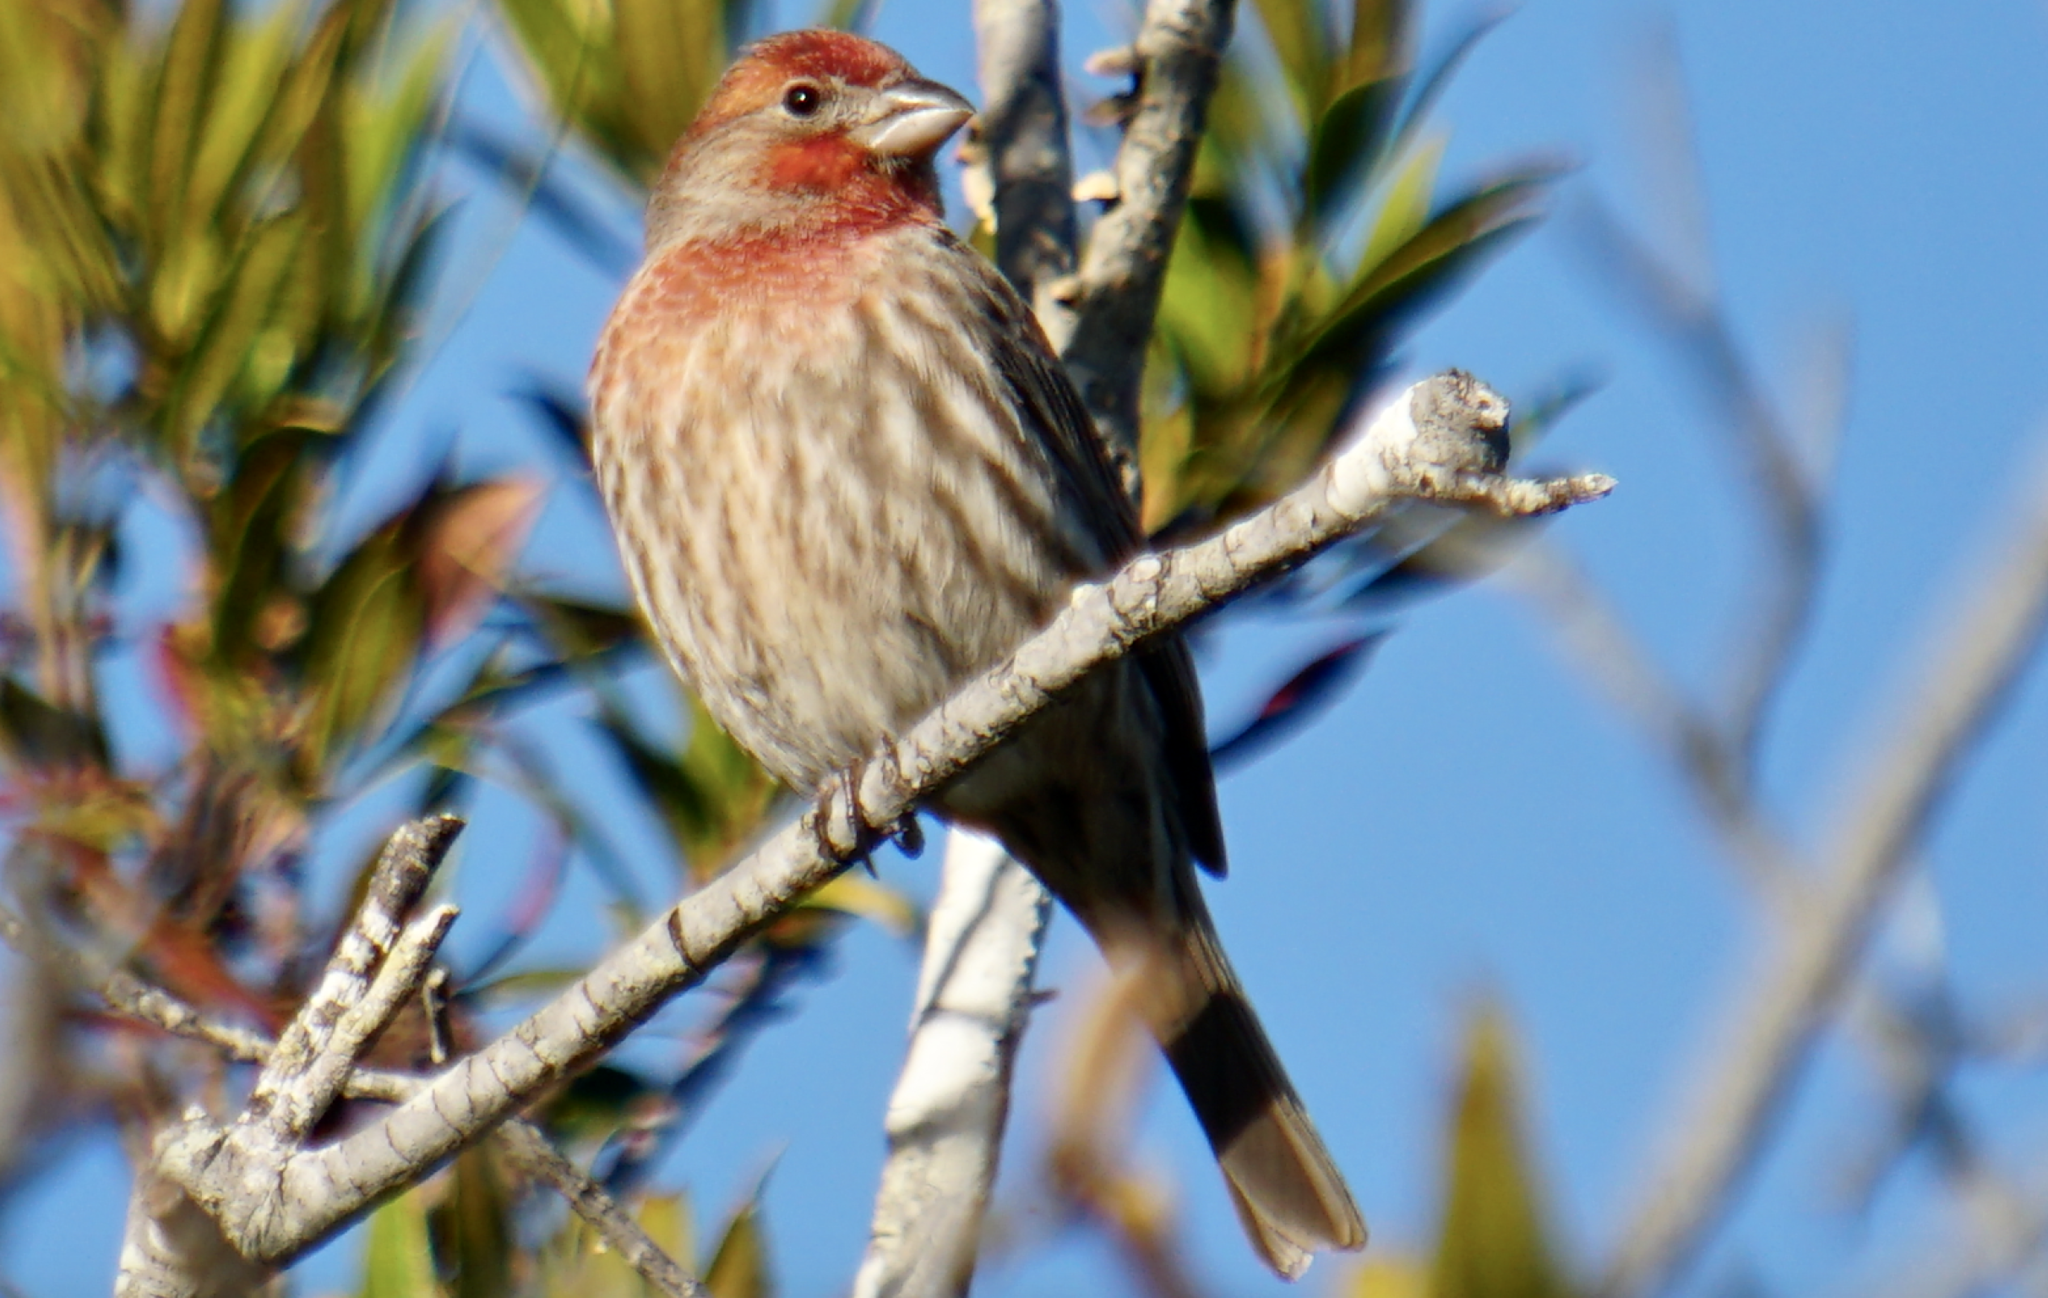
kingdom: Animalia
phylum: Chordata
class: Aves
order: Passeriformes
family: Fringillidae
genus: Haemorhous
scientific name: Haemorhous mexicanus
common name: House finch
